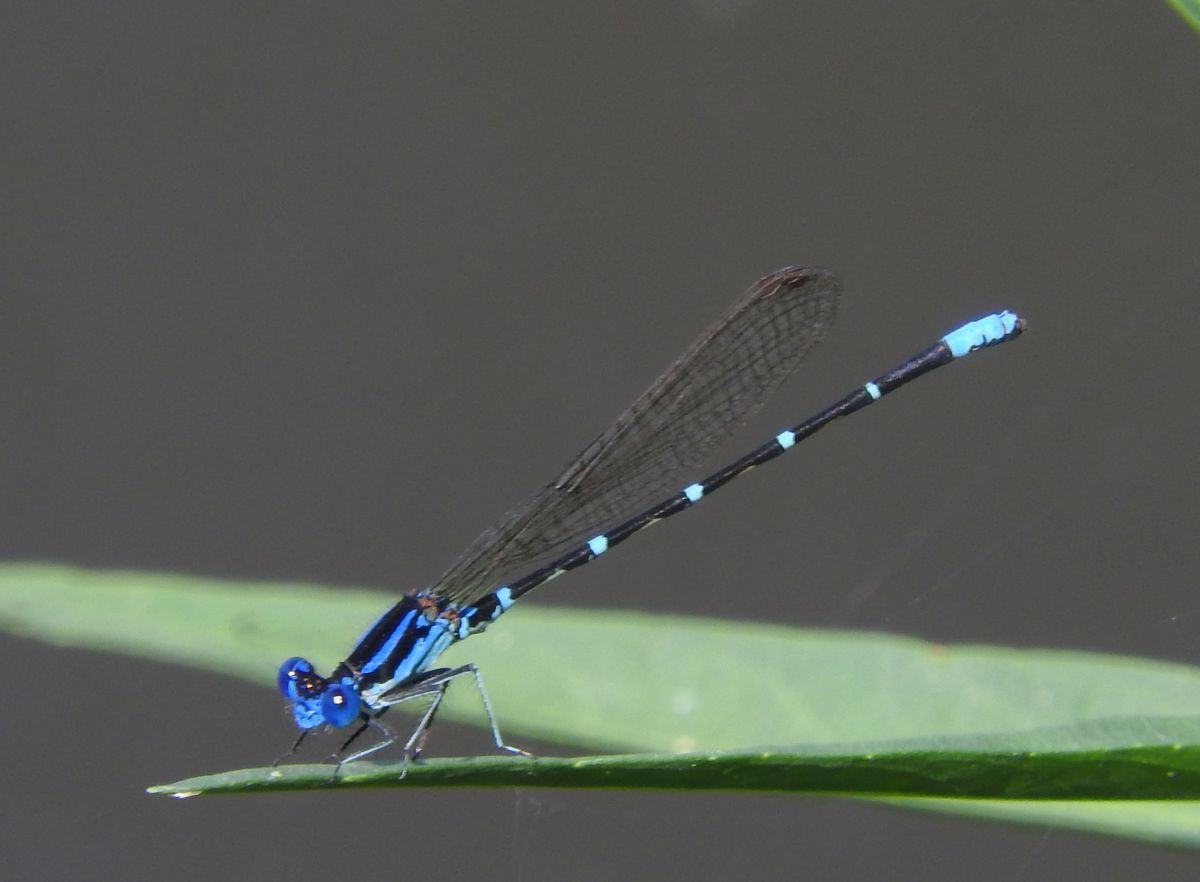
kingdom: Animalia
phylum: Arthropoda
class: Insecta
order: Odonata
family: Coenagrionidae
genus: Argia
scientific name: Argia sedula
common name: Blue-ringed dancer
